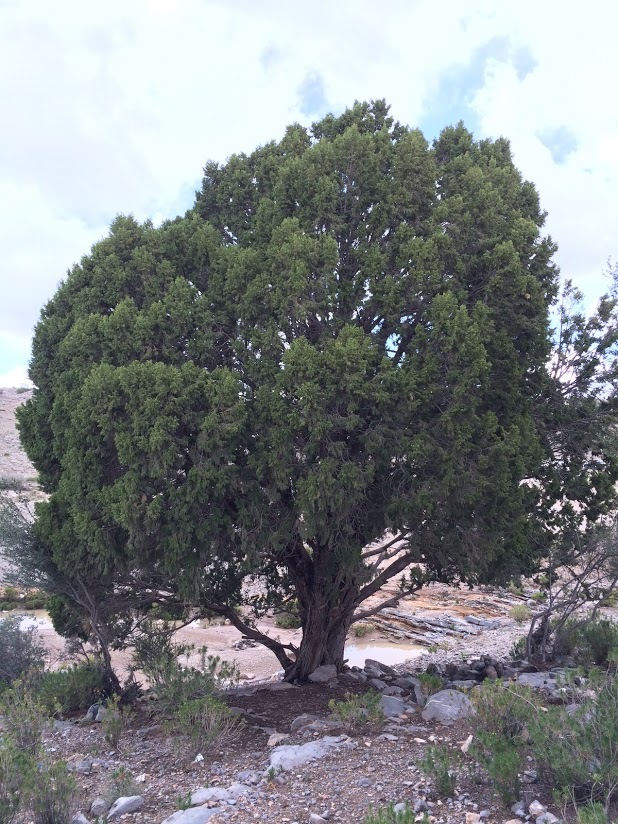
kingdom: Plantae
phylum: Tracheophyta
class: Pinopsida
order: Pinales
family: Cupressaceae
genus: Juniperus
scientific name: Juniperus excelsa
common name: Crimean juniper
